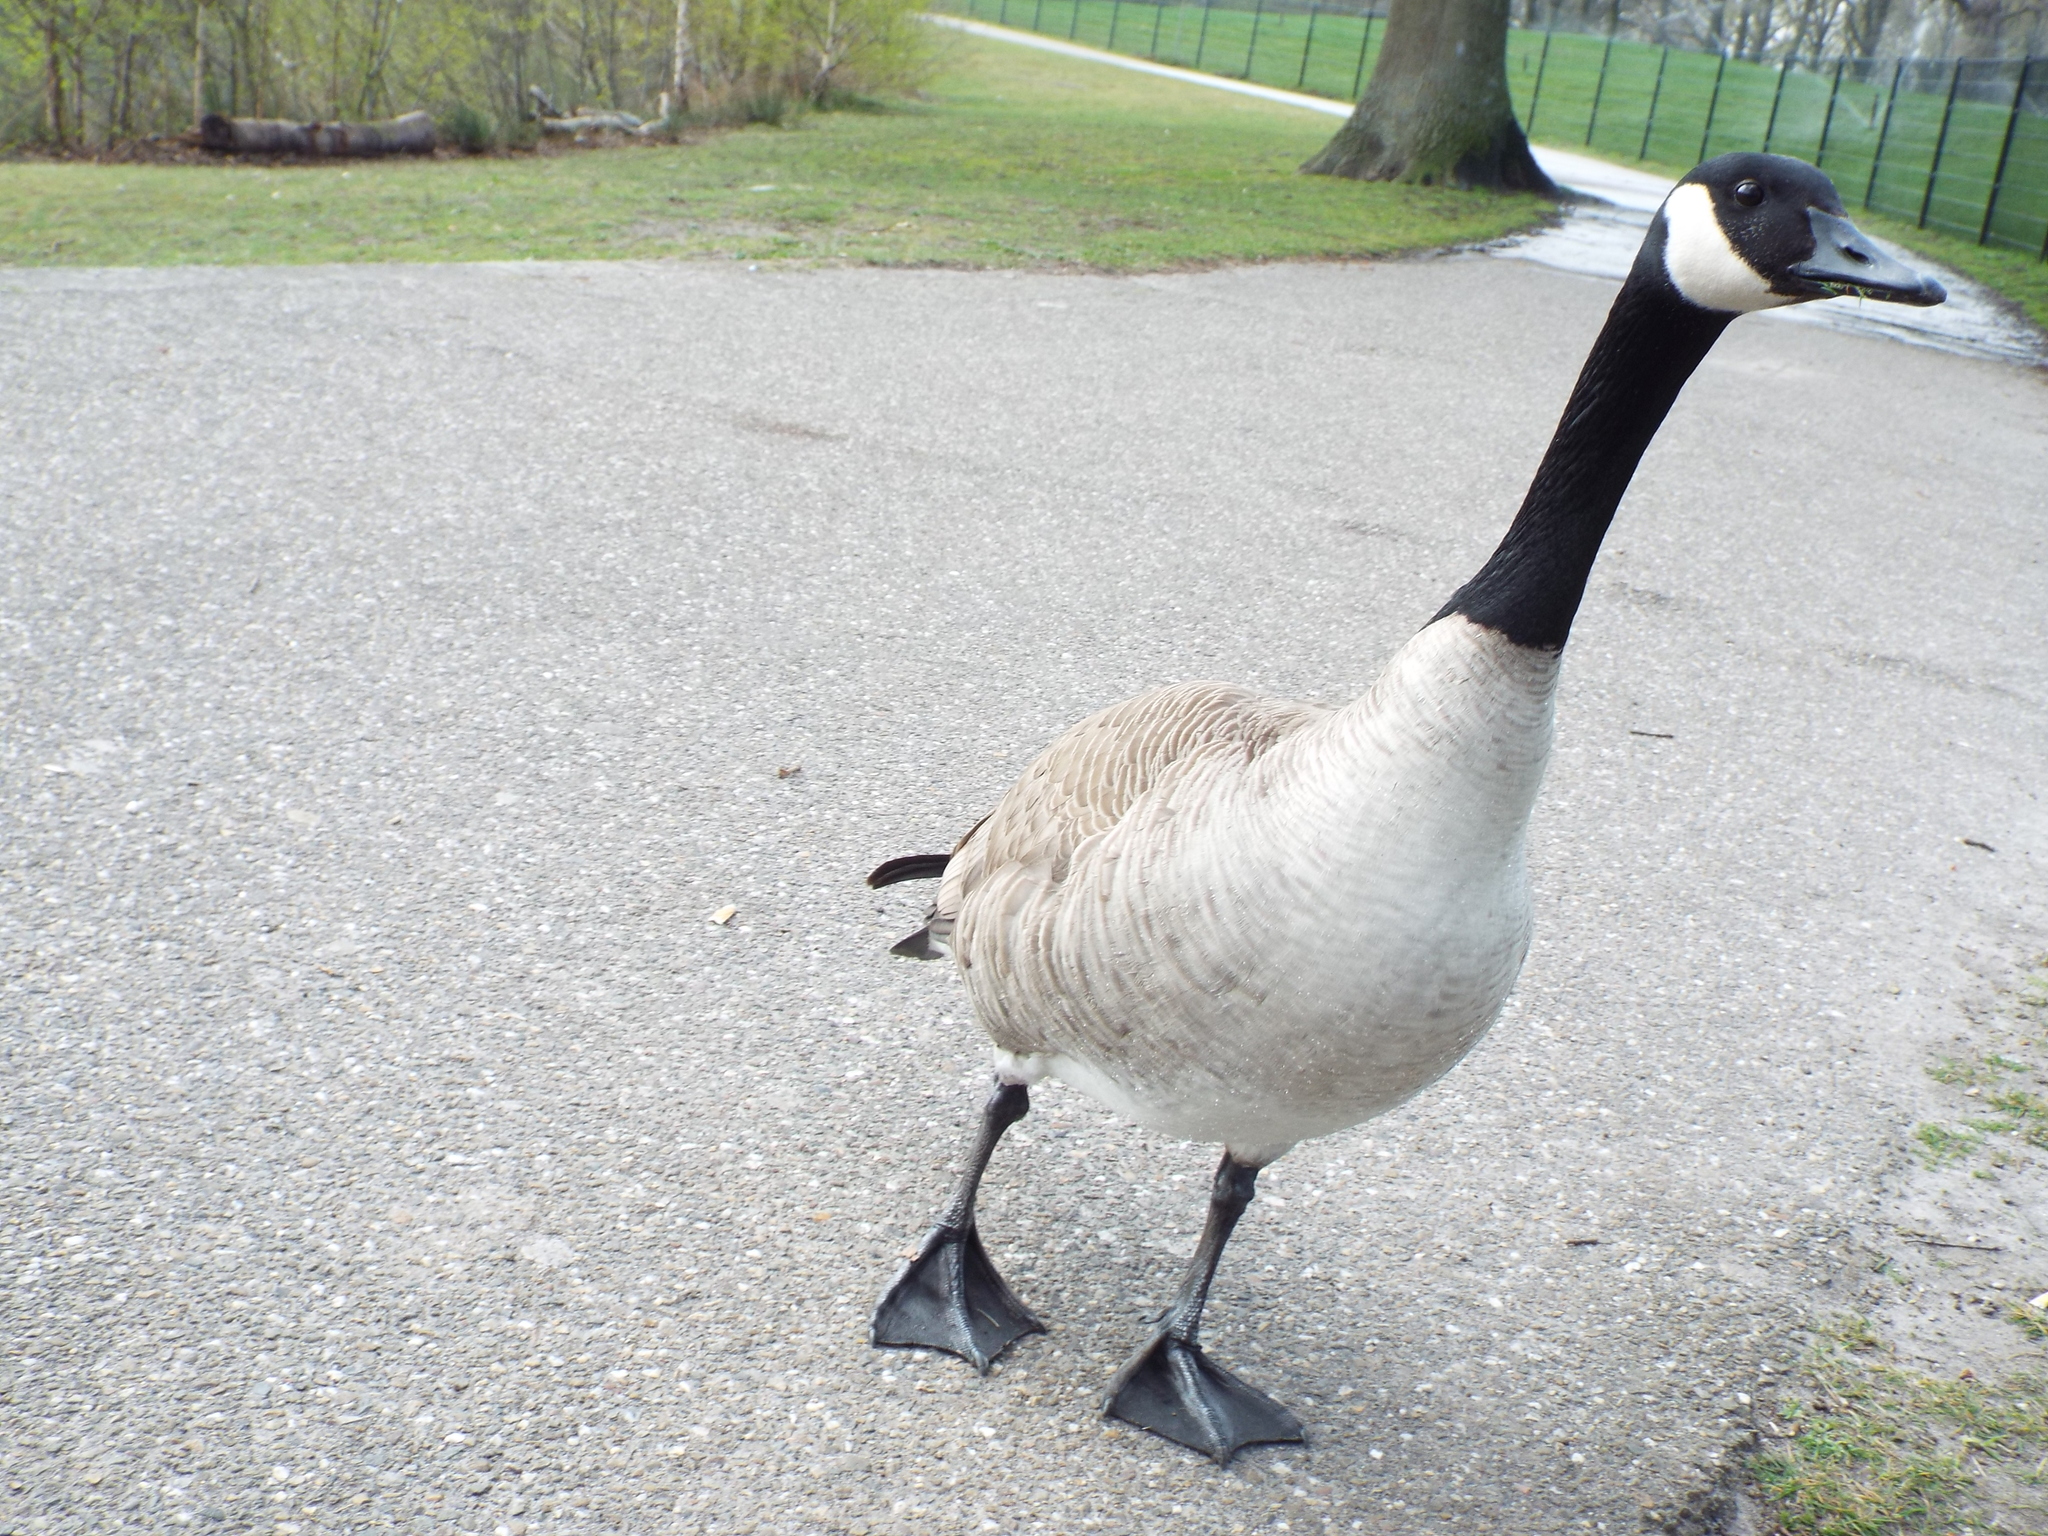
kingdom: Animalia
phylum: Chordata
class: Aves
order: Anseriformes
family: Anatidae
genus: Branta
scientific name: Branta canadensis
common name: Canada goose
